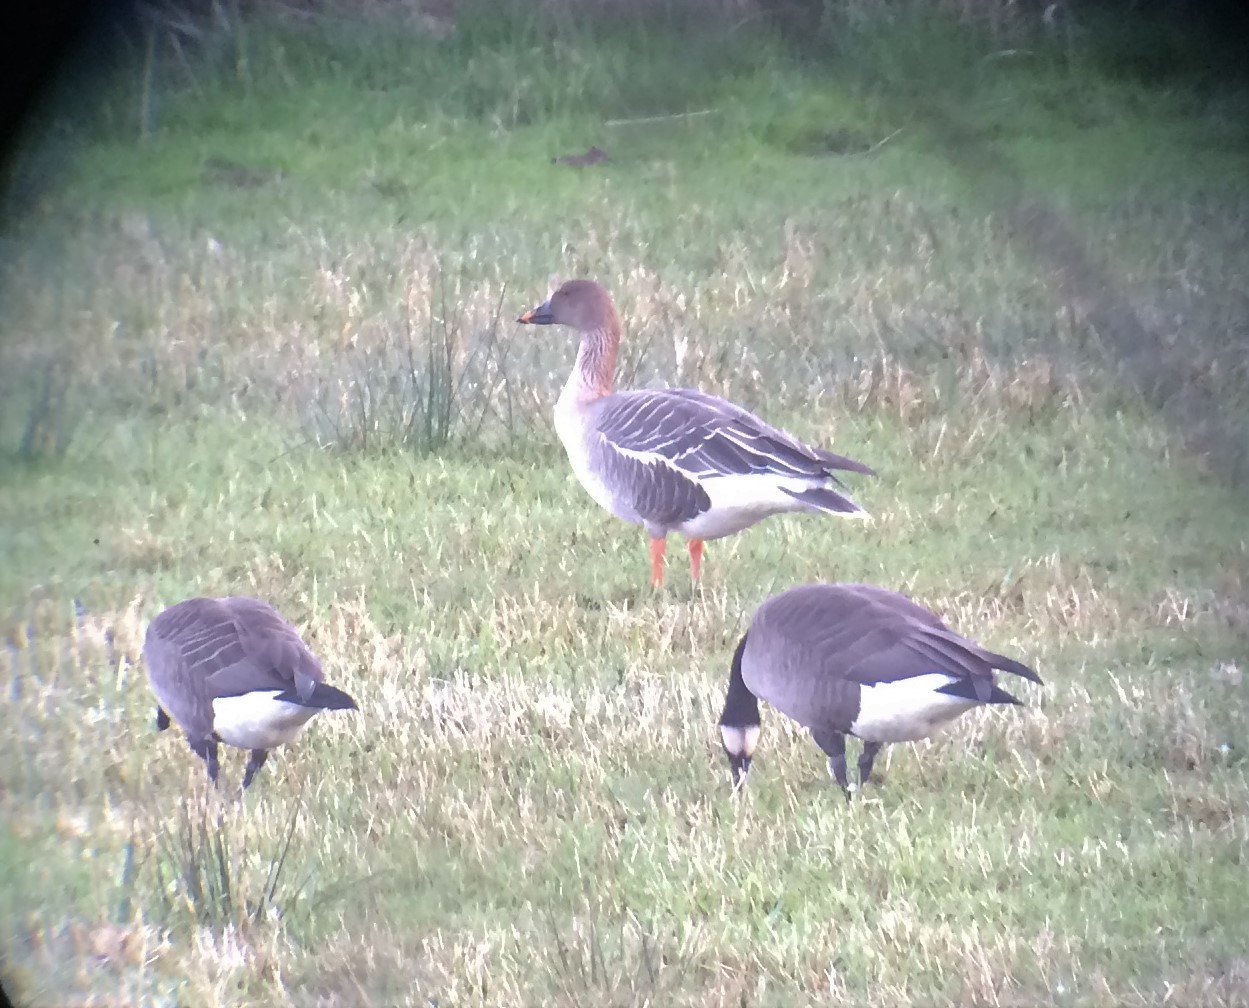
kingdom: Animalia
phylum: Chordata
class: Aves
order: Anseriformes
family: Anatidae
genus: Anser
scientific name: Anser serrirostris
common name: Tundra bean goose
